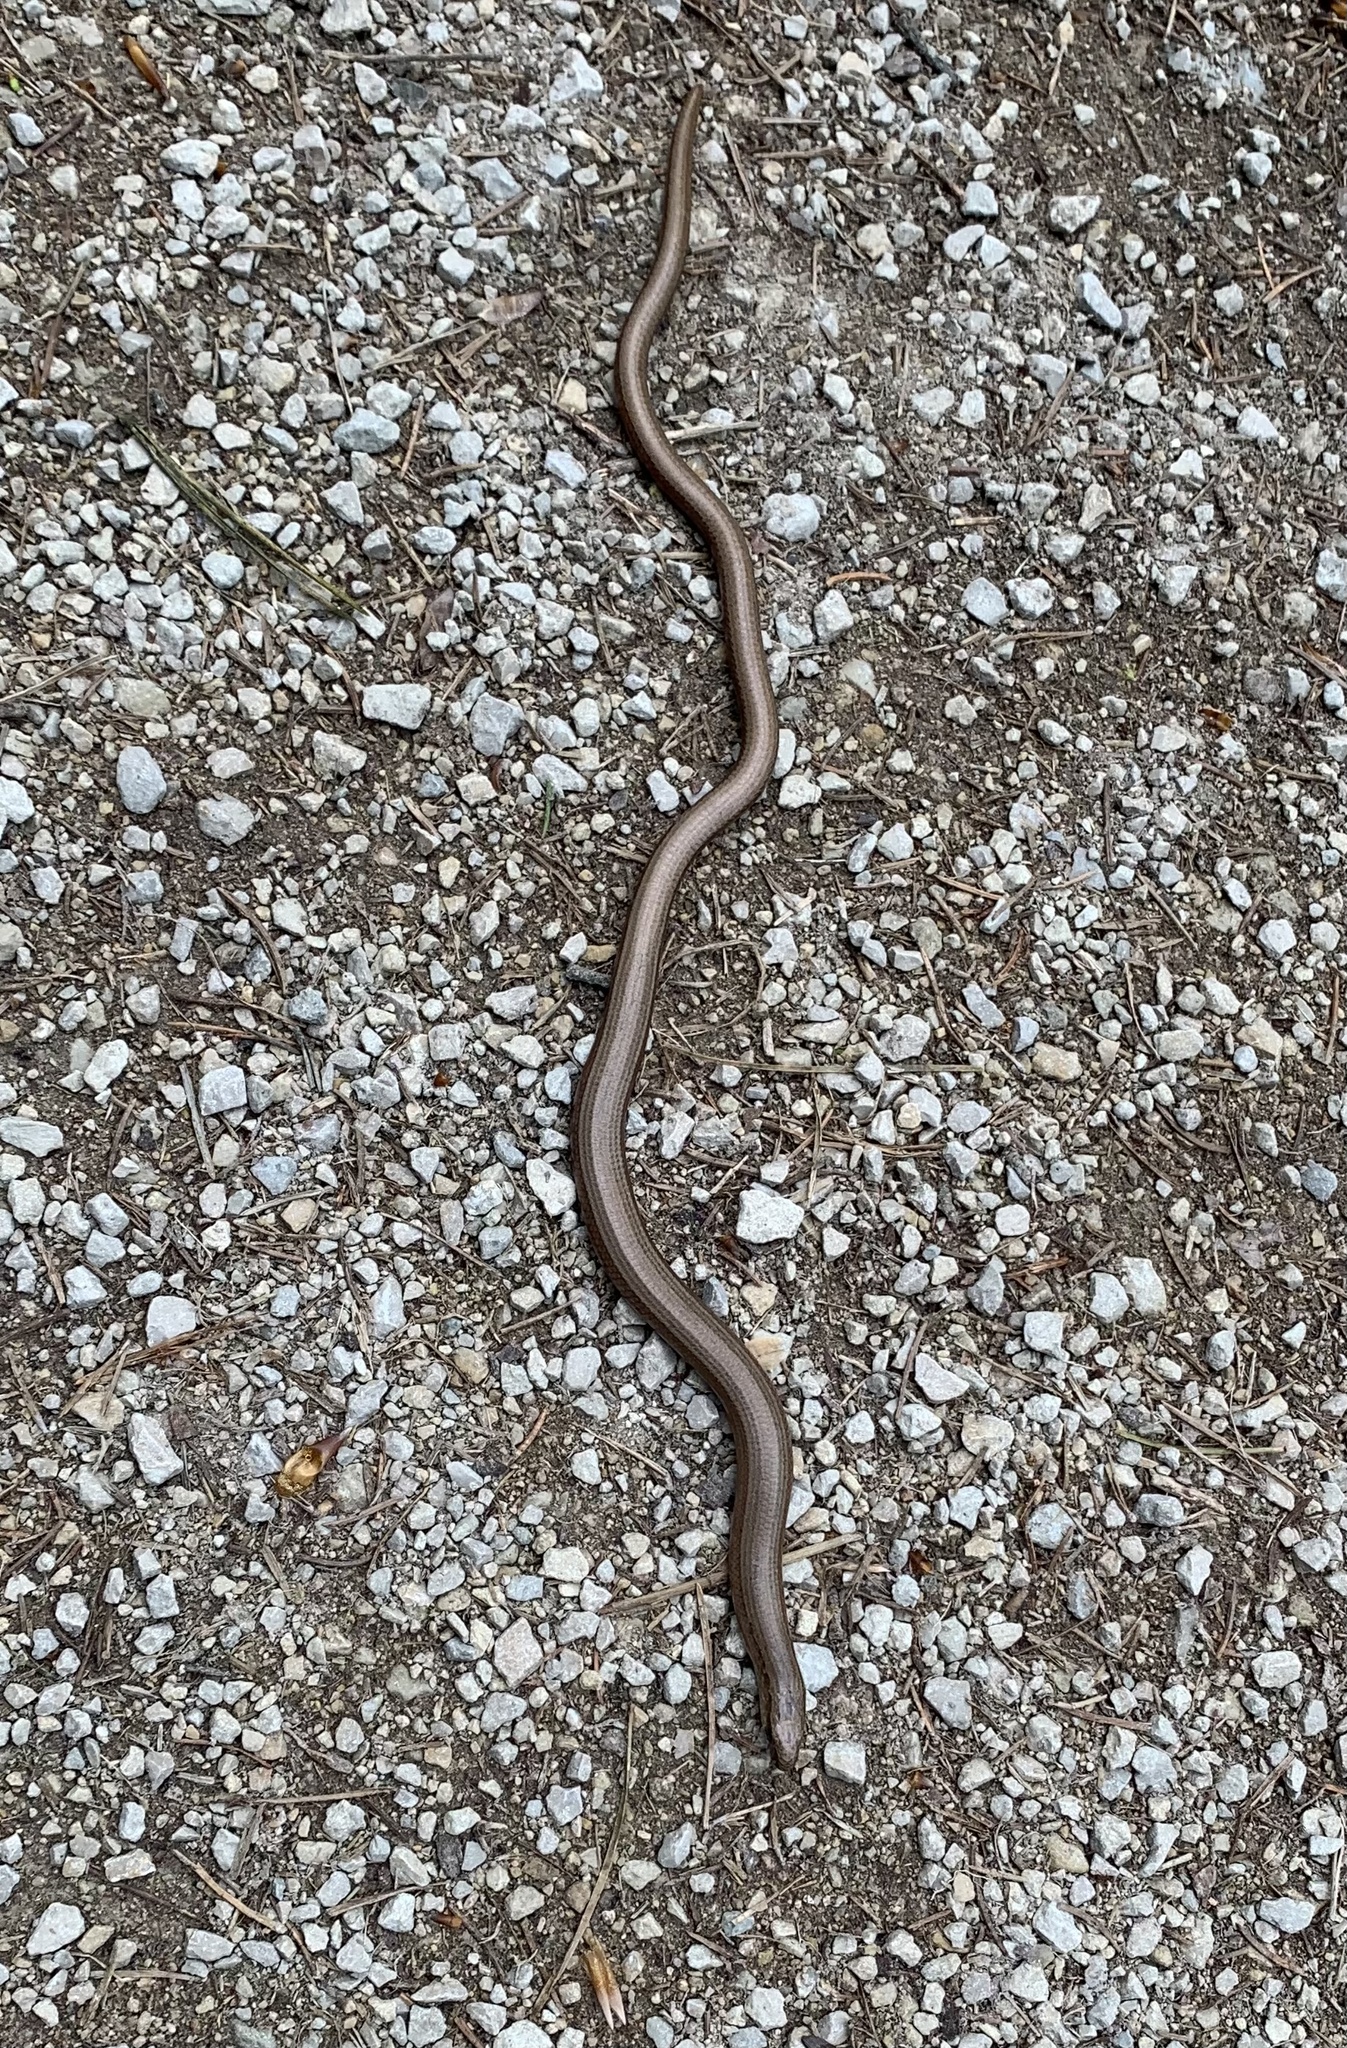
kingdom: Animalia
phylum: Chordata
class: Squamata
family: Anguidae
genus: Anguis
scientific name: Anguis fragilis
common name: Slow worm
